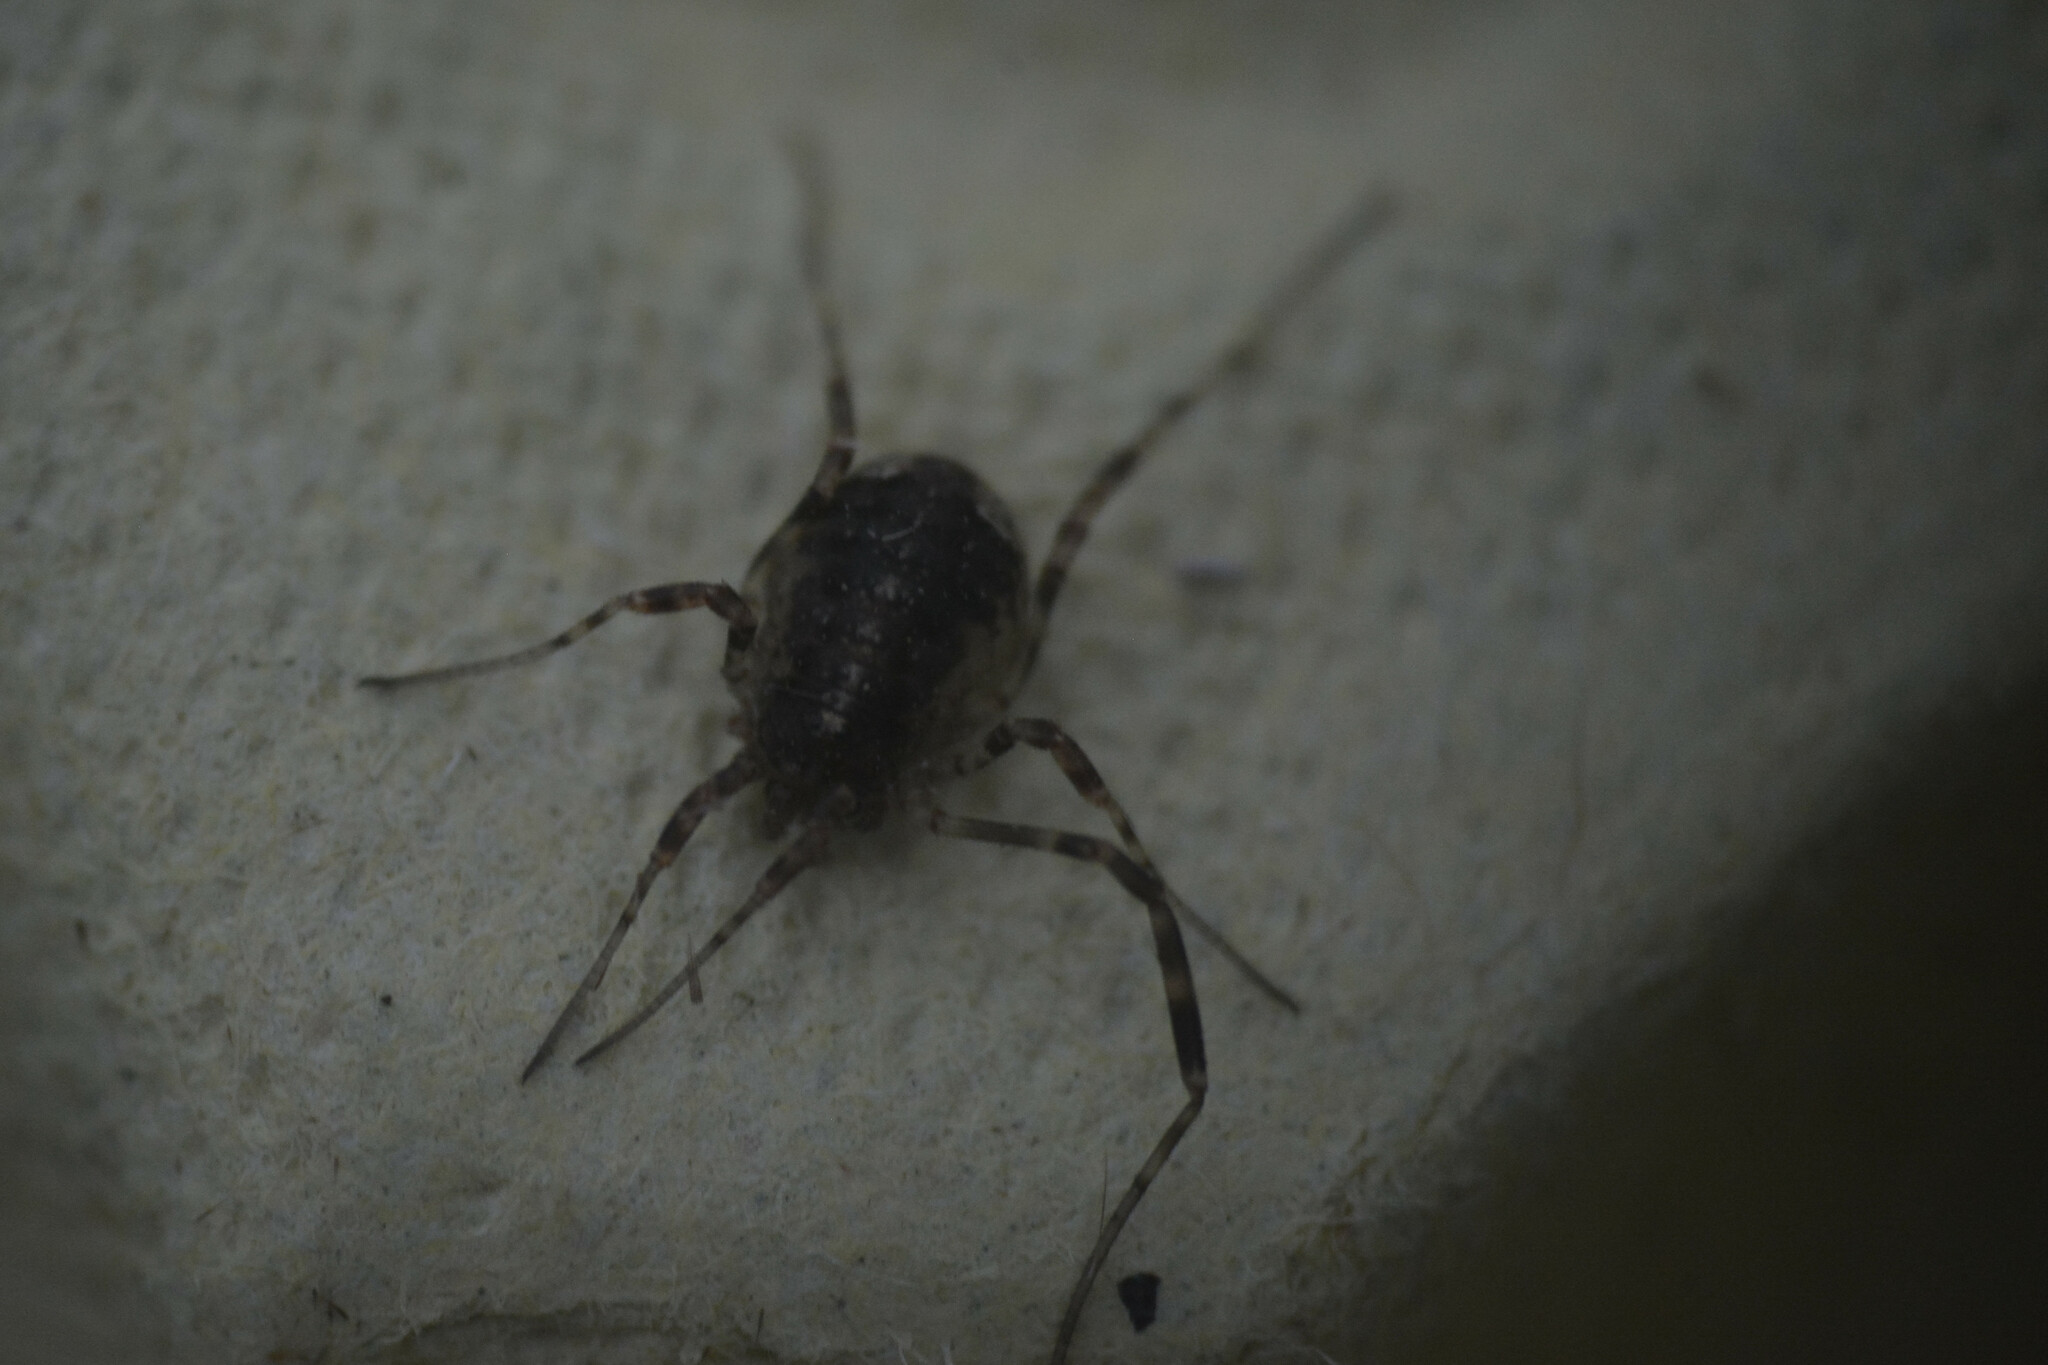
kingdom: Animalia
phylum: Arthropoda
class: Arachnida
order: Opiliones
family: Phalangiidae
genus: Paroligolophus
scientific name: Paroligolophus agrestis
